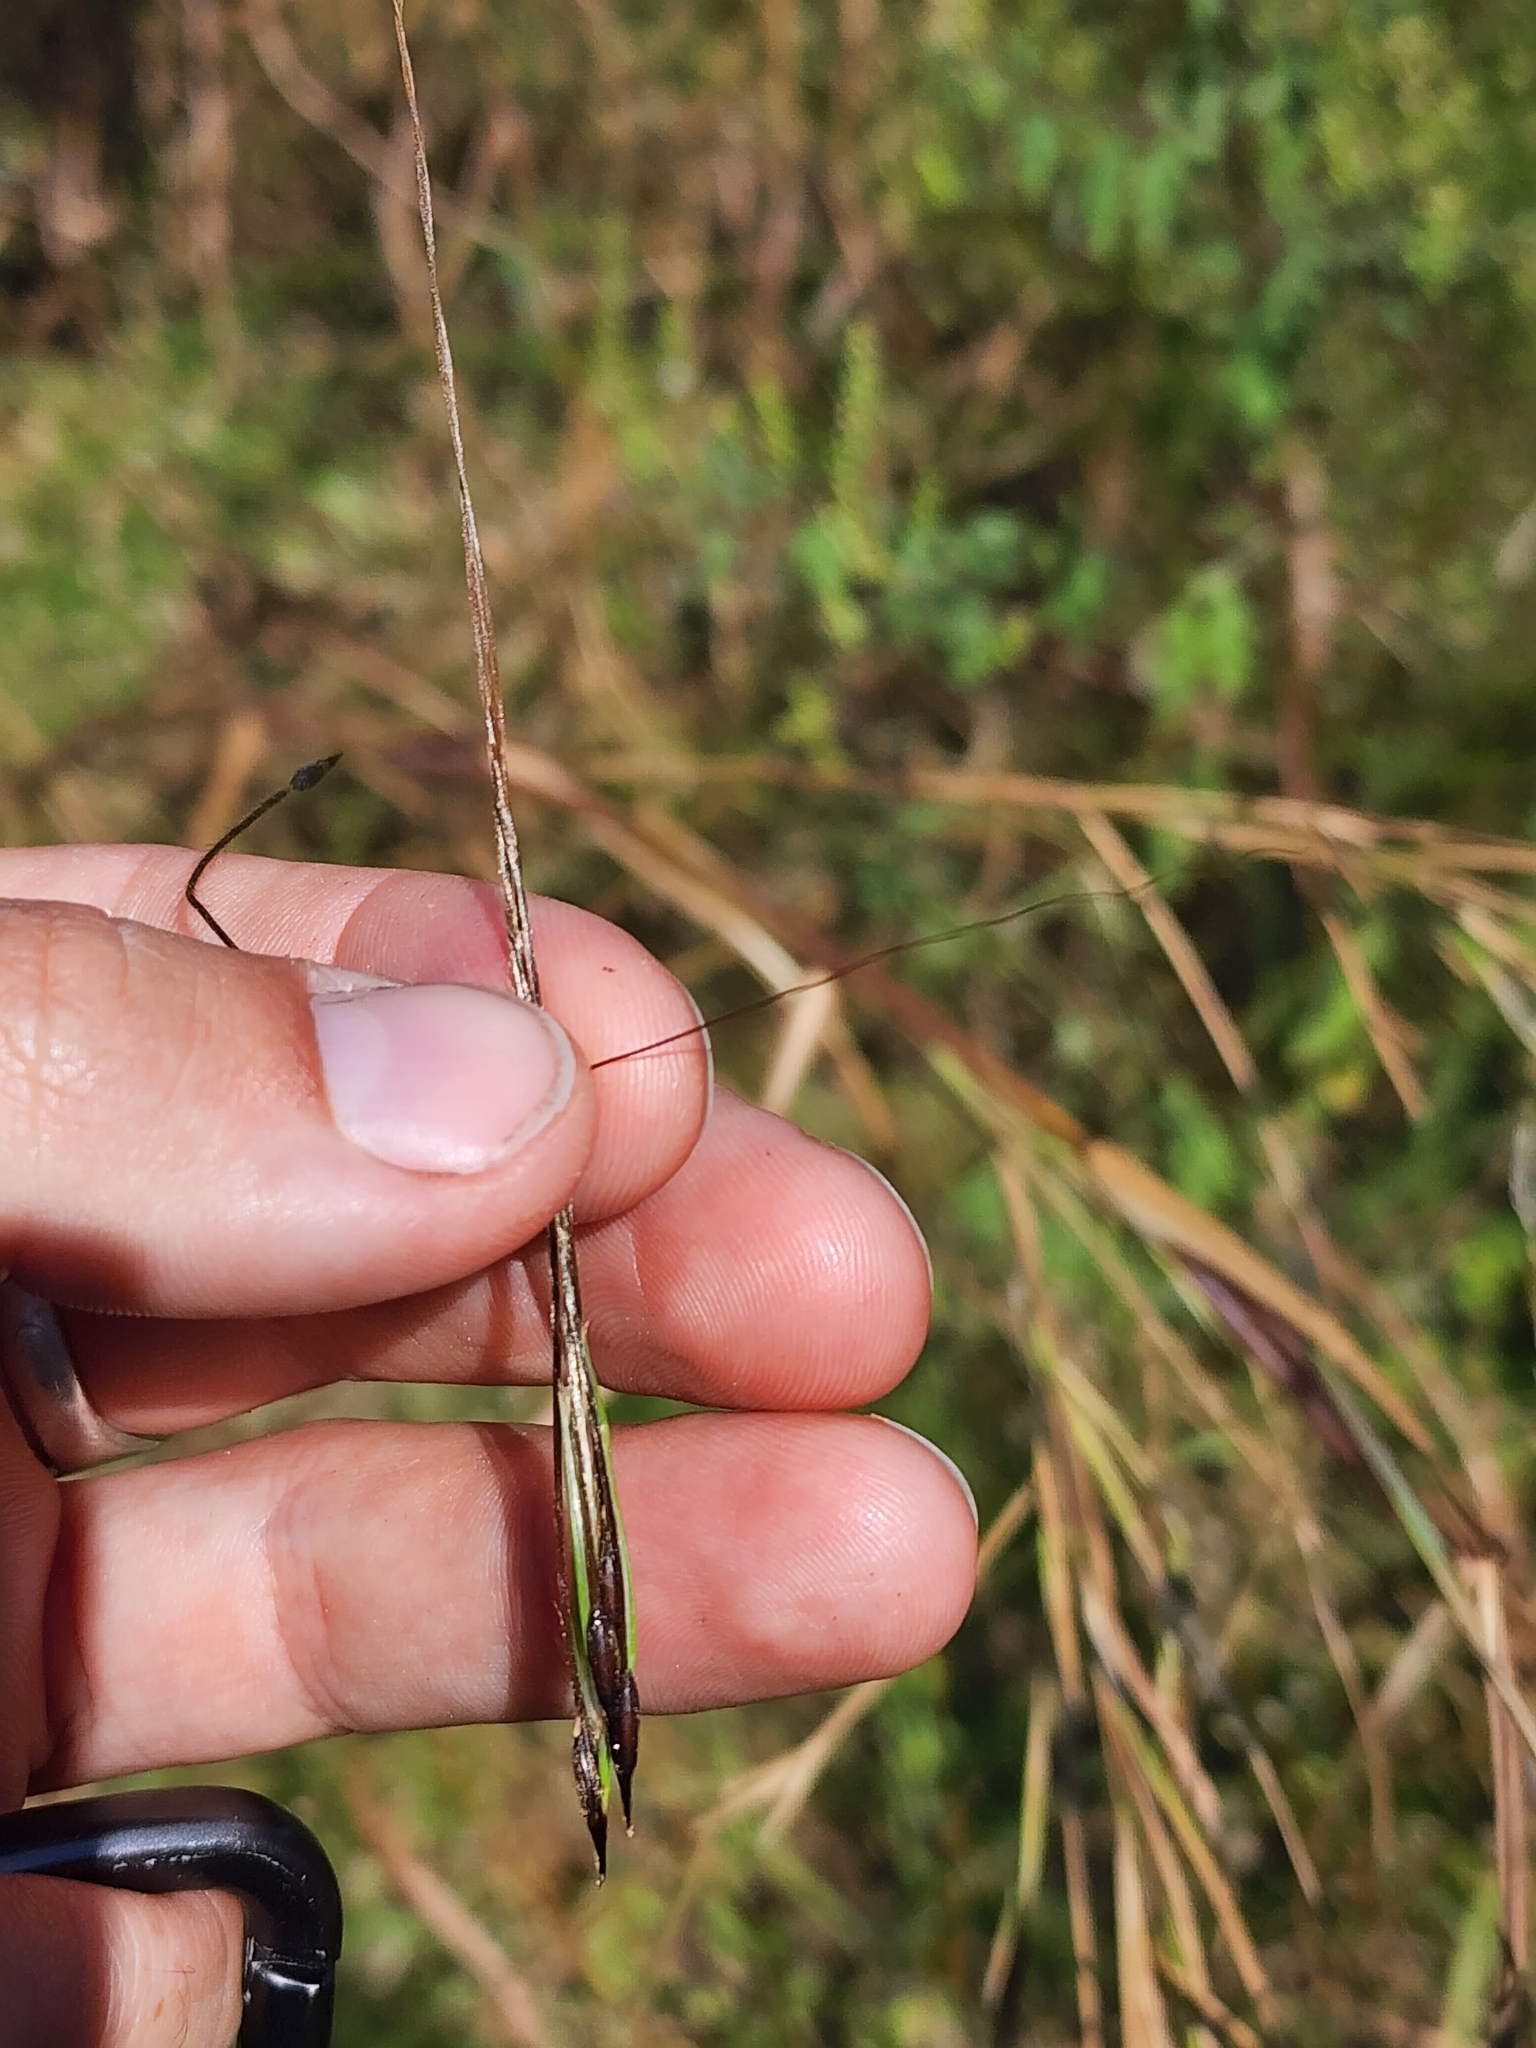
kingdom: Plantae
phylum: Tracheophyta
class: Liliopsida
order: Poales
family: Poaceae
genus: Heteropogon
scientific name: Heteropogon melanocarpus
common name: Sweet tanglehead
